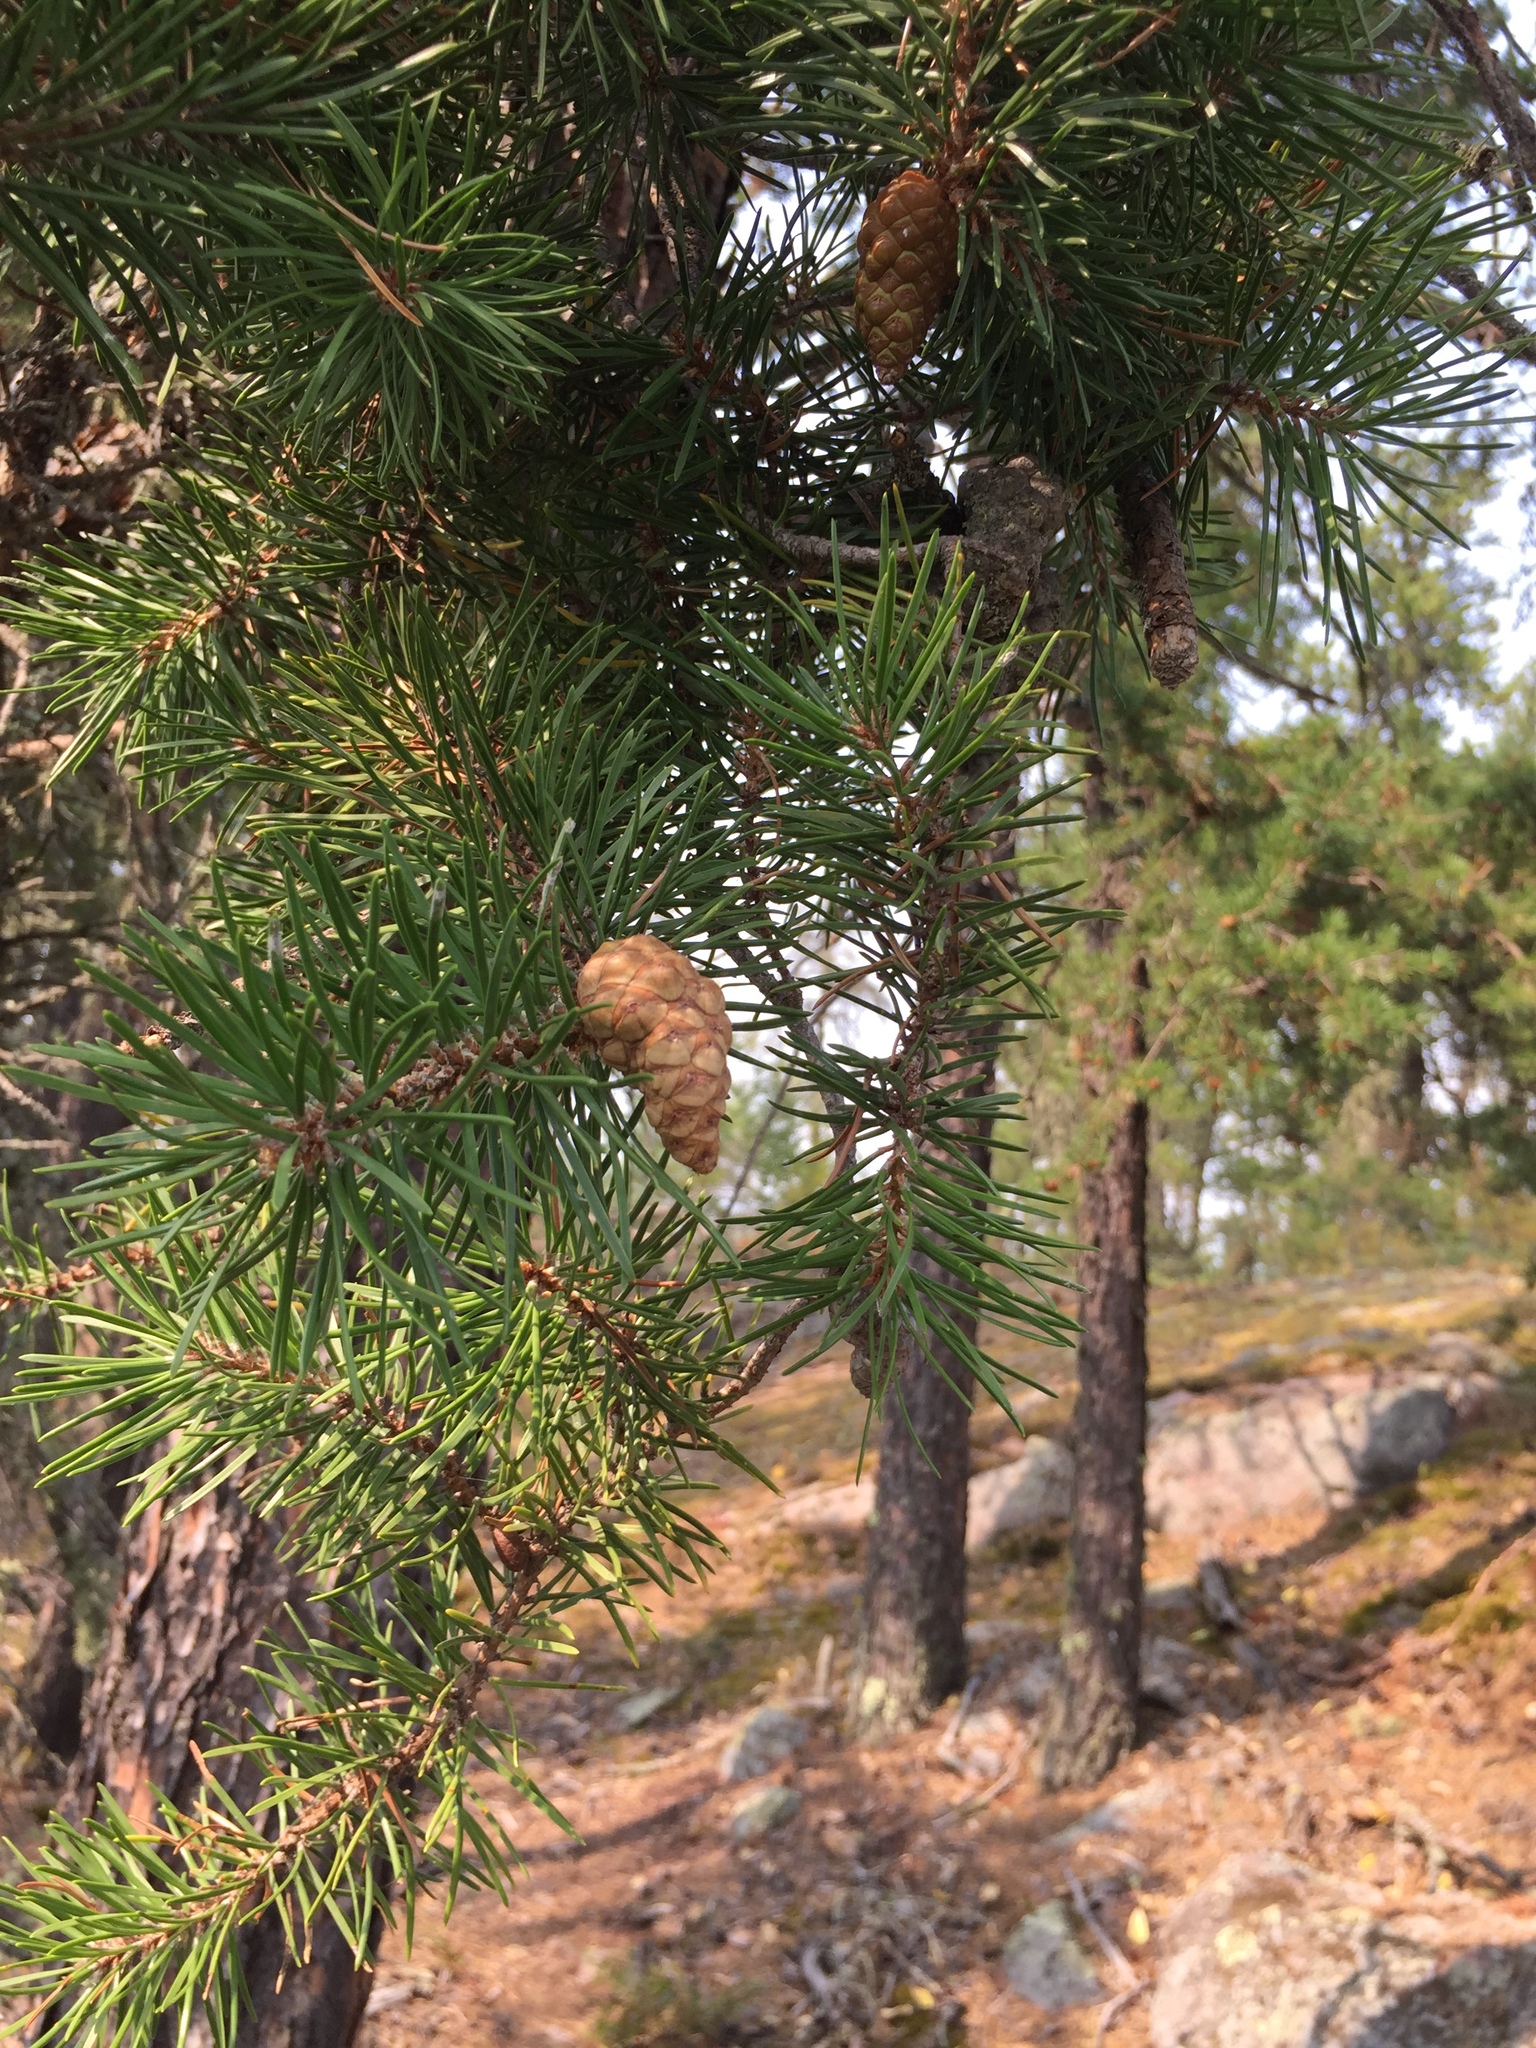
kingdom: Plantae
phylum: Tracheophyta
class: Pinopsida
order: Pinales
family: Pinaceae
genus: Pinus
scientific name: Pinus banksiana
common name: Jack pine
